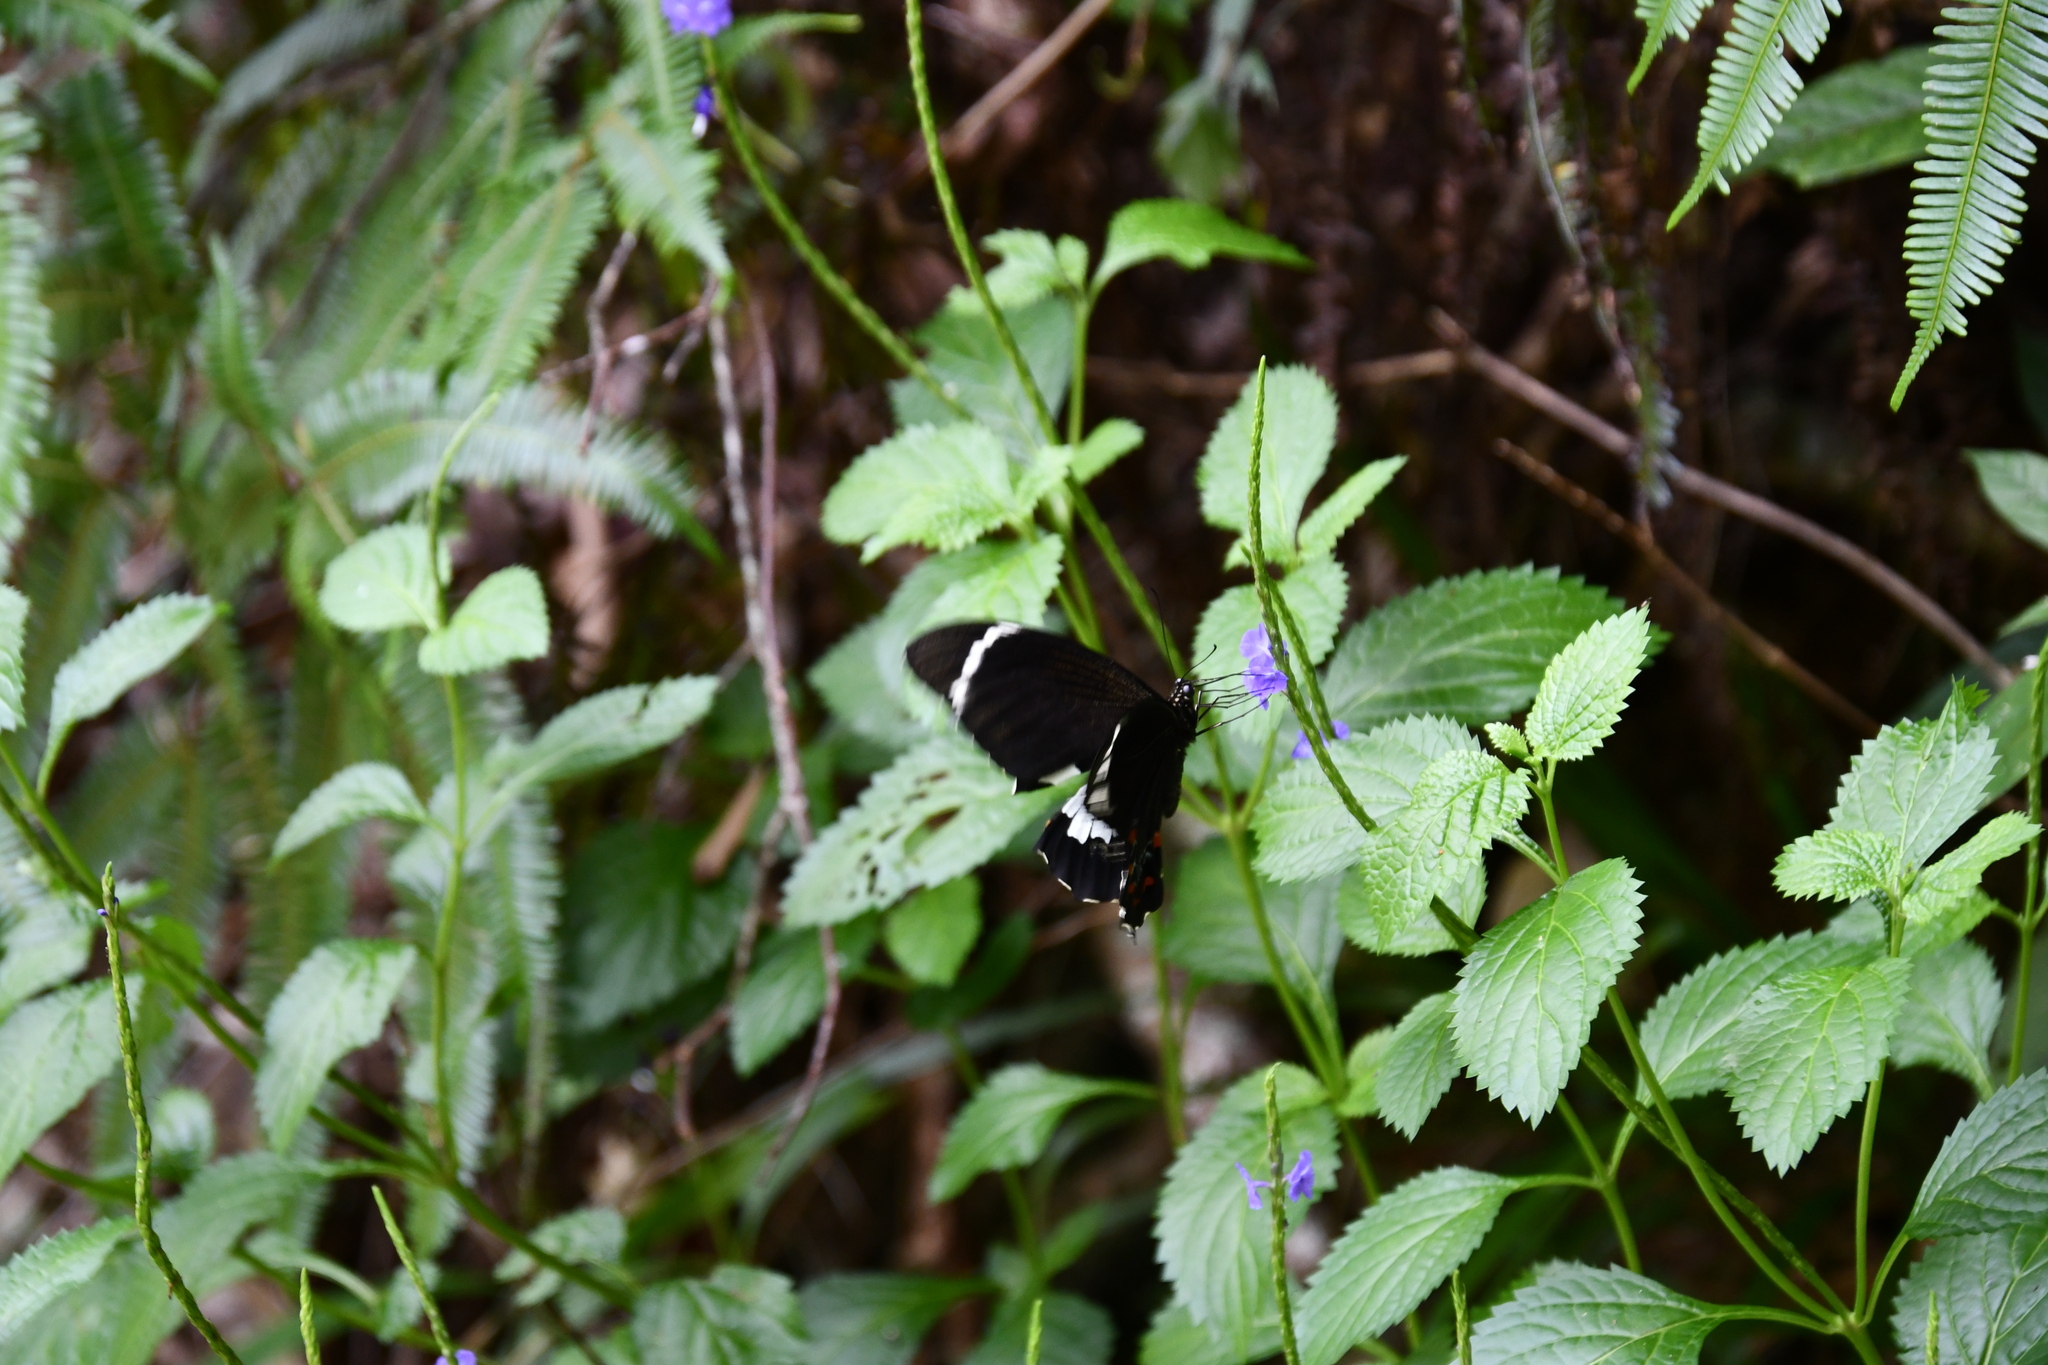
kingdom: Animalia
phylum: Arthropoda
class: Insecta
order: Lepidoptera
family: Papilionidae
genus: Papilio
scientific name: Papilio aegeus
